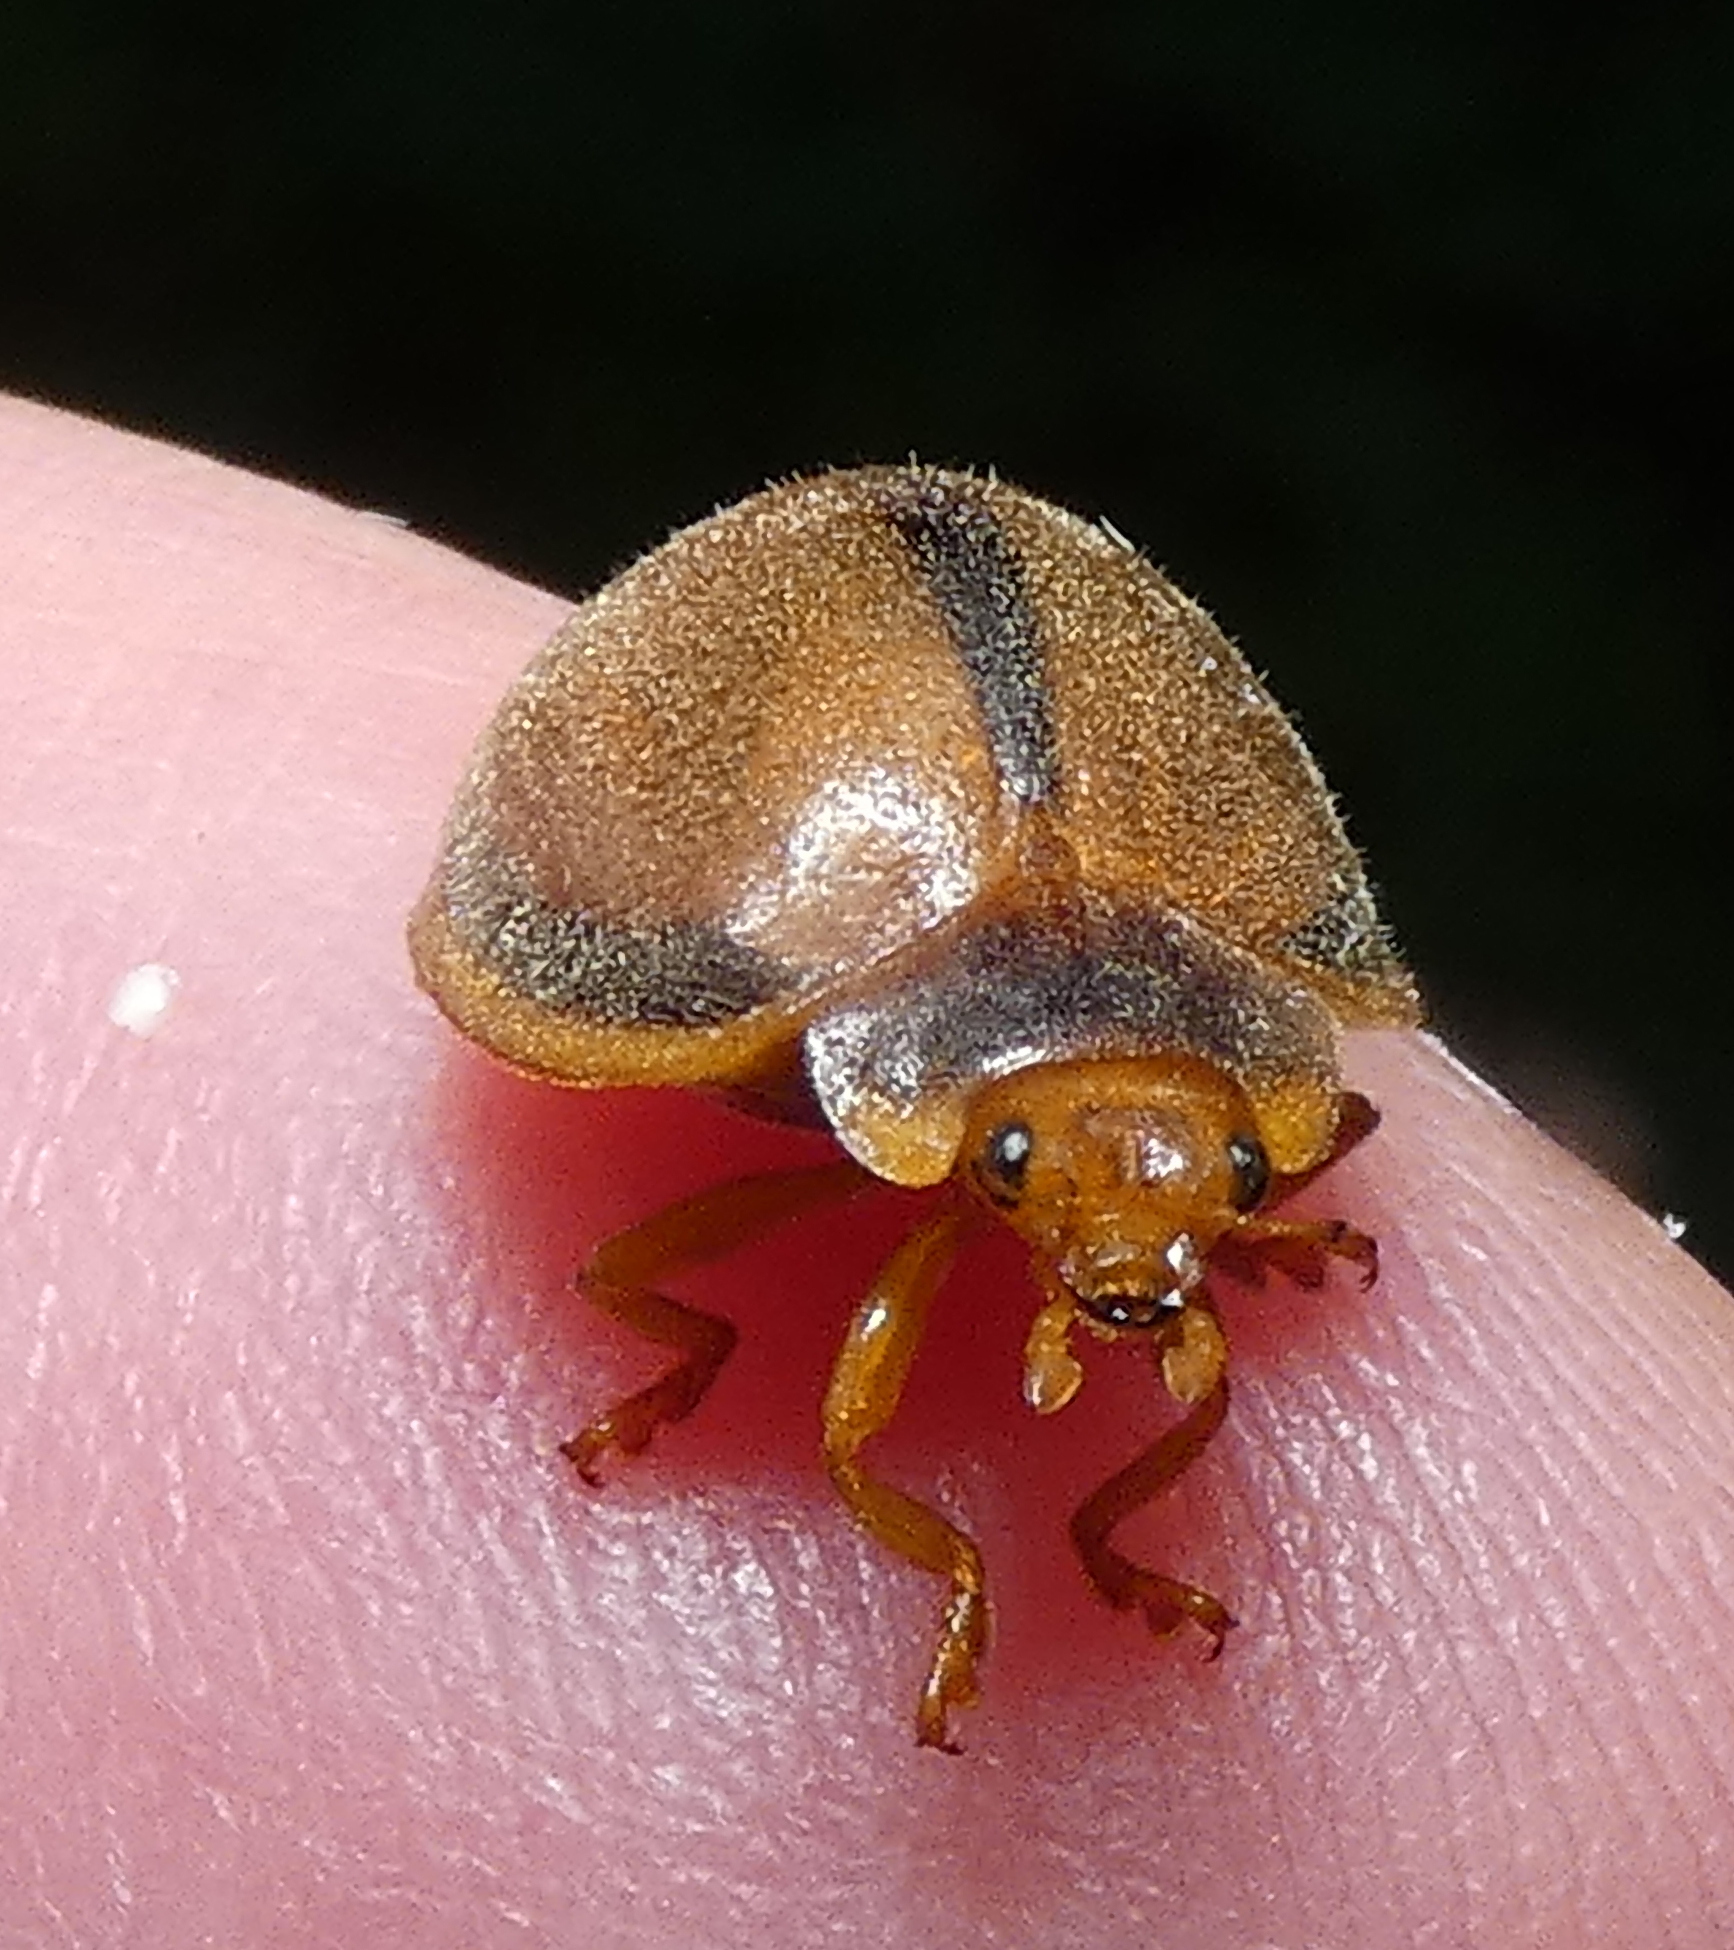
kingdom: Animalia
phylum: Arthropoda
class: Insecta
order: Coleoptera
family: Coccinellidae
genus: Epilachna
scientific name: Epilachna cacica
